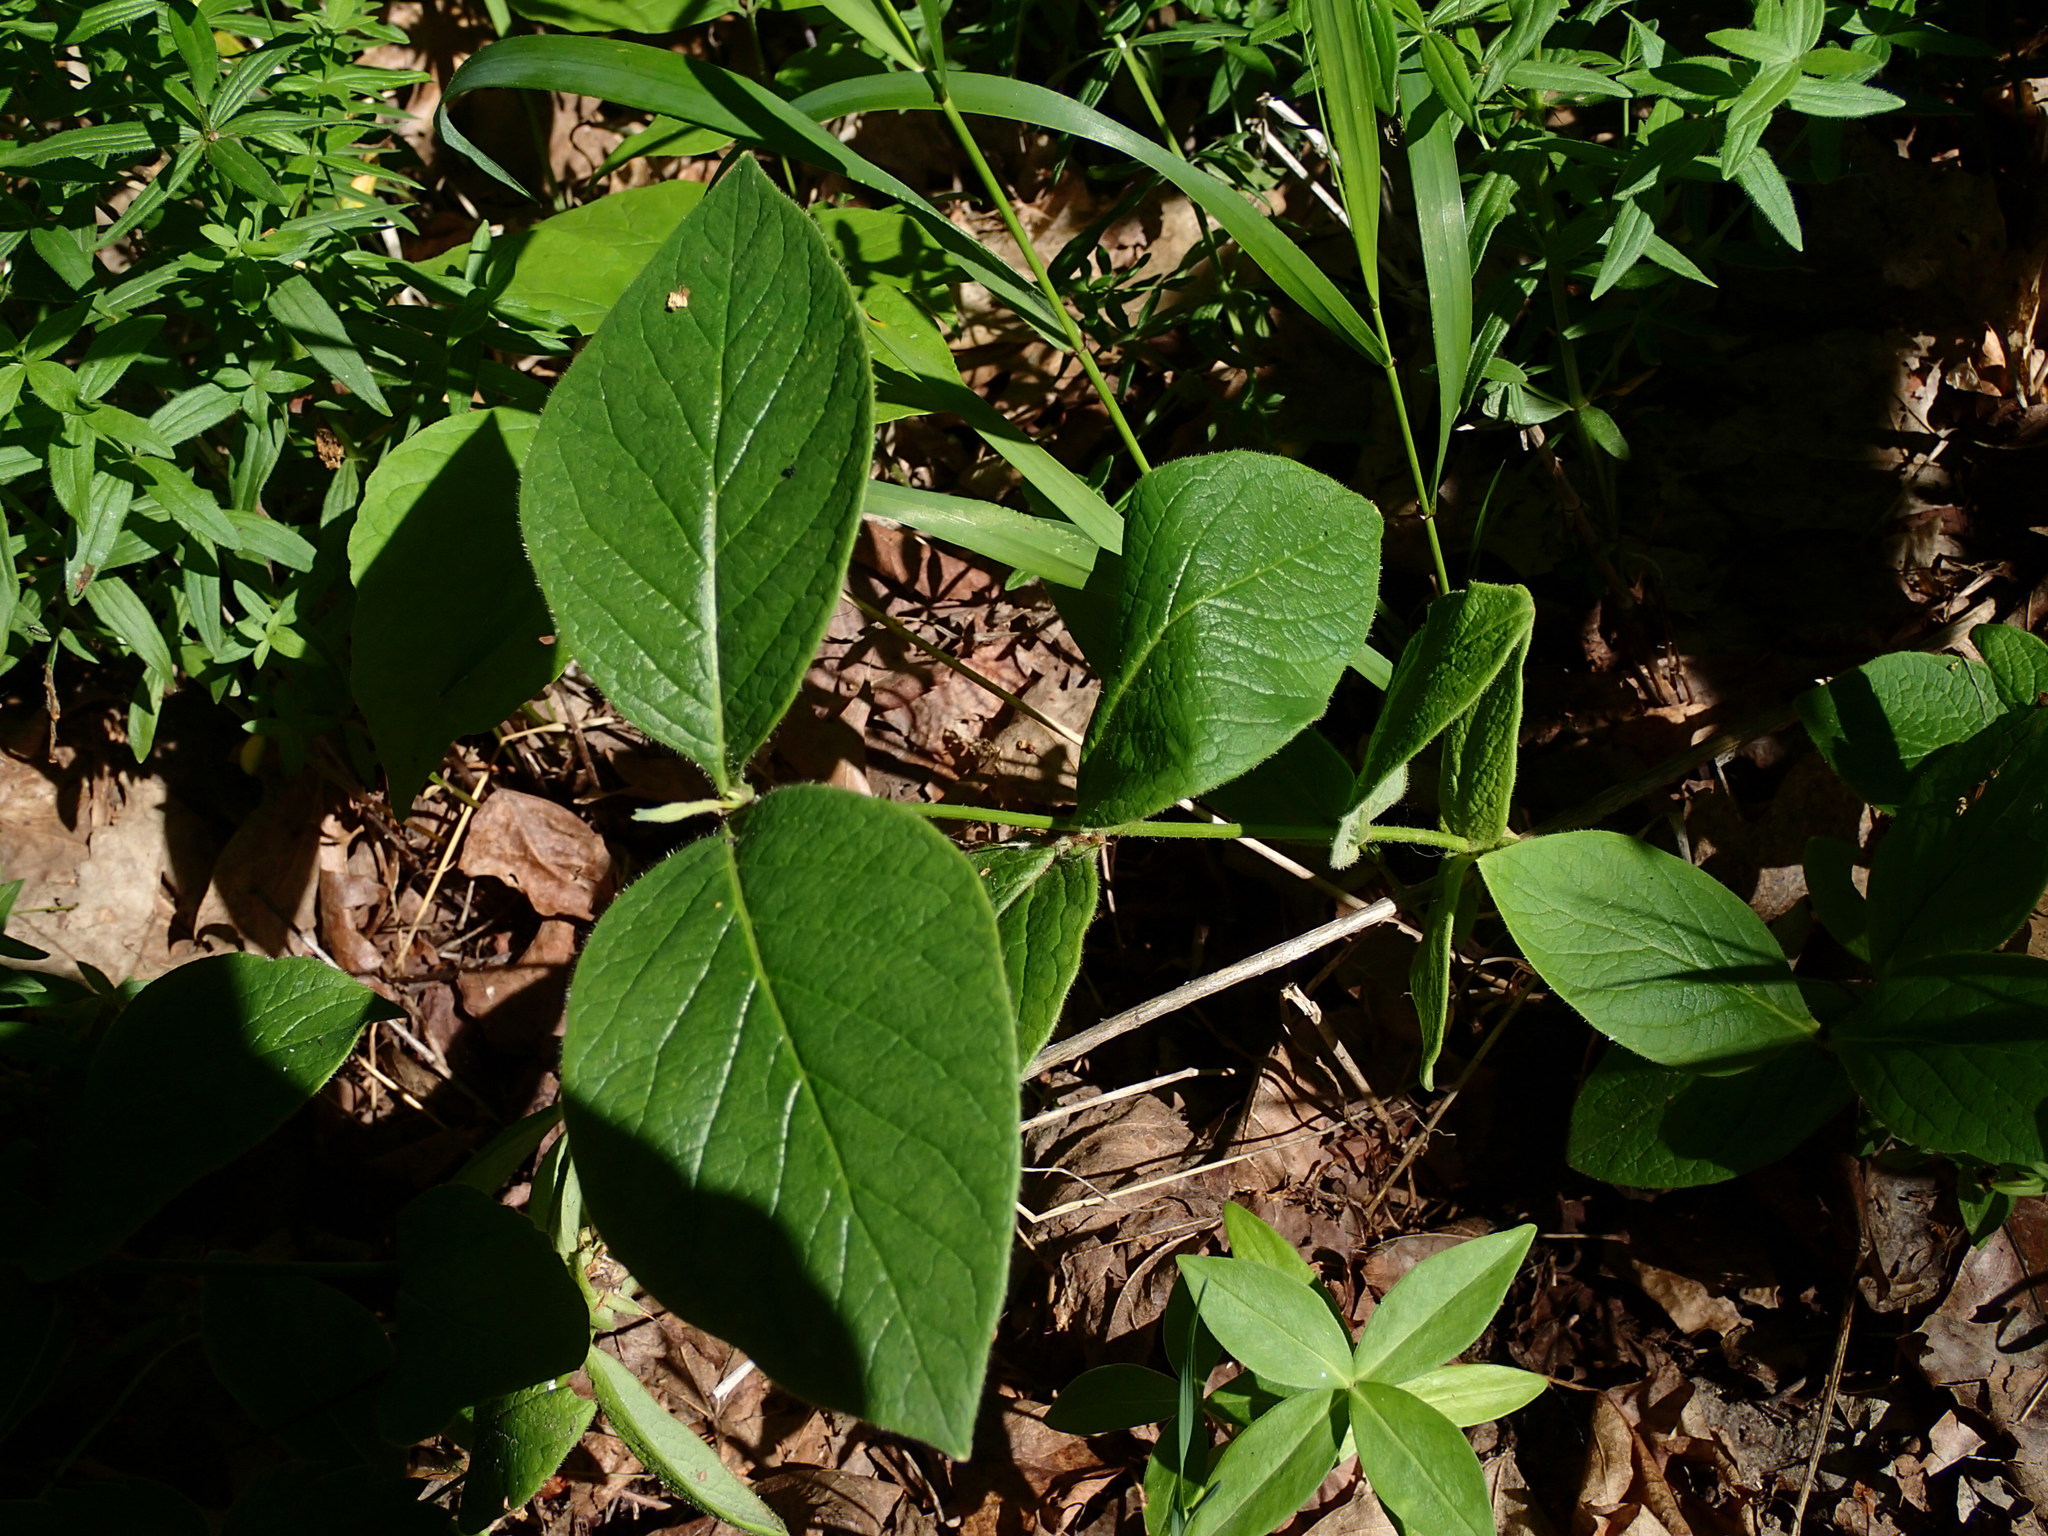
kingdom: Plantae
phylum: Tracheophyta
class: Magnoliopsida
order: Dipsacales
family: Caprifoliaceae
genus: Lonicera
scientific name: Lonicera hirsuta
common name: Hairy honeysuckle
